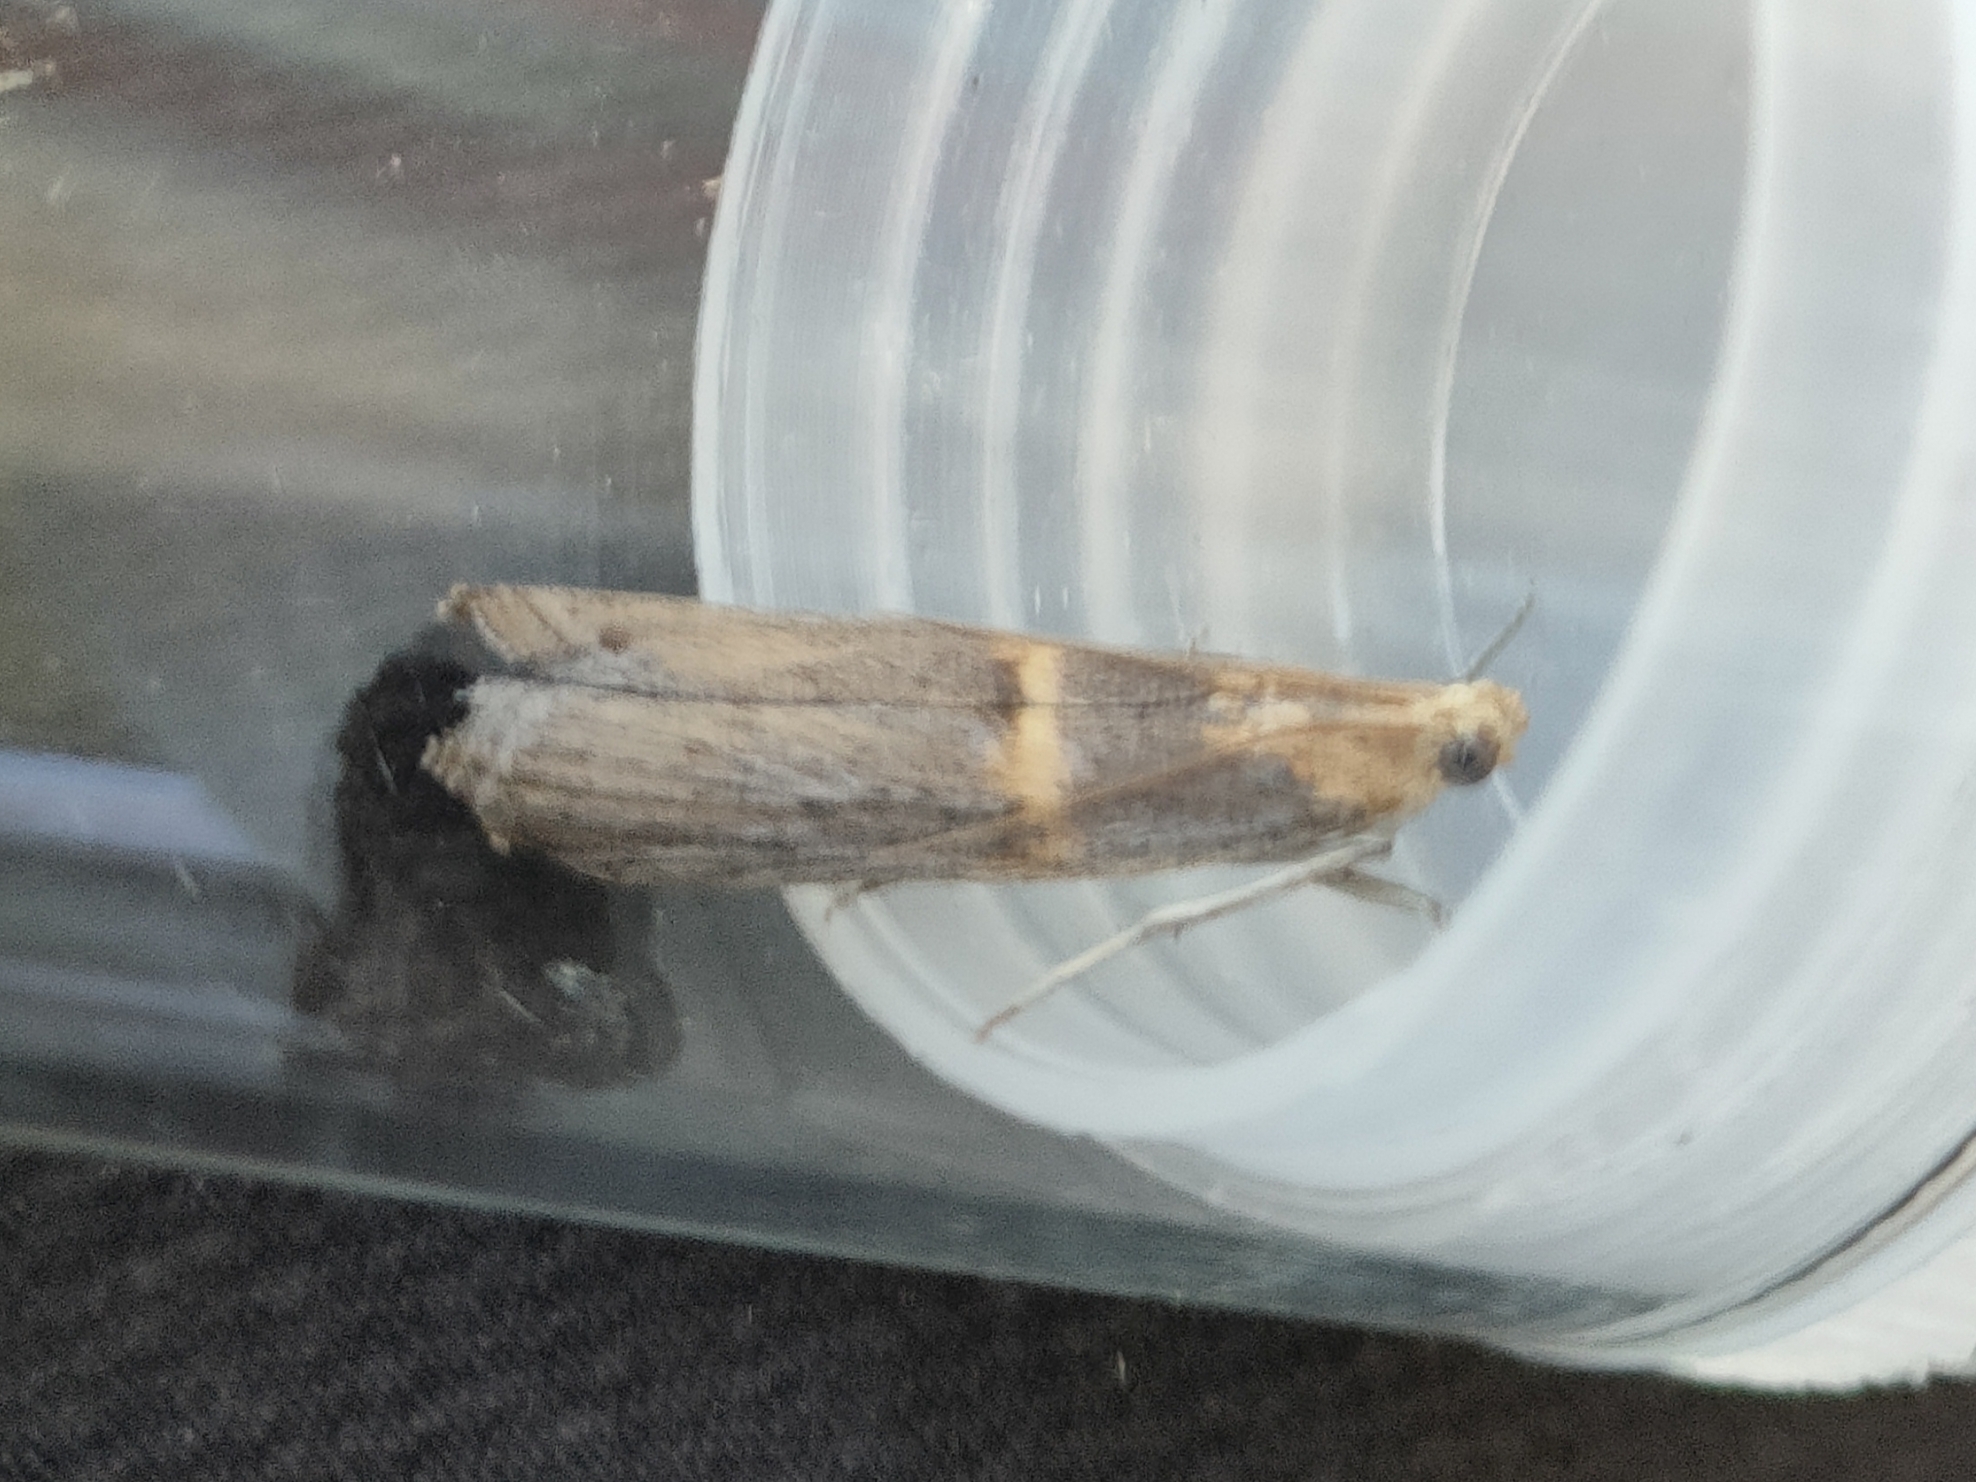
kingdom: Animalia
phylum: Arthropoda
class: Insecta
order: Lepidoptera
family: Pyralidae
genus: Oxybia
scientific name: Oxybia transversella
